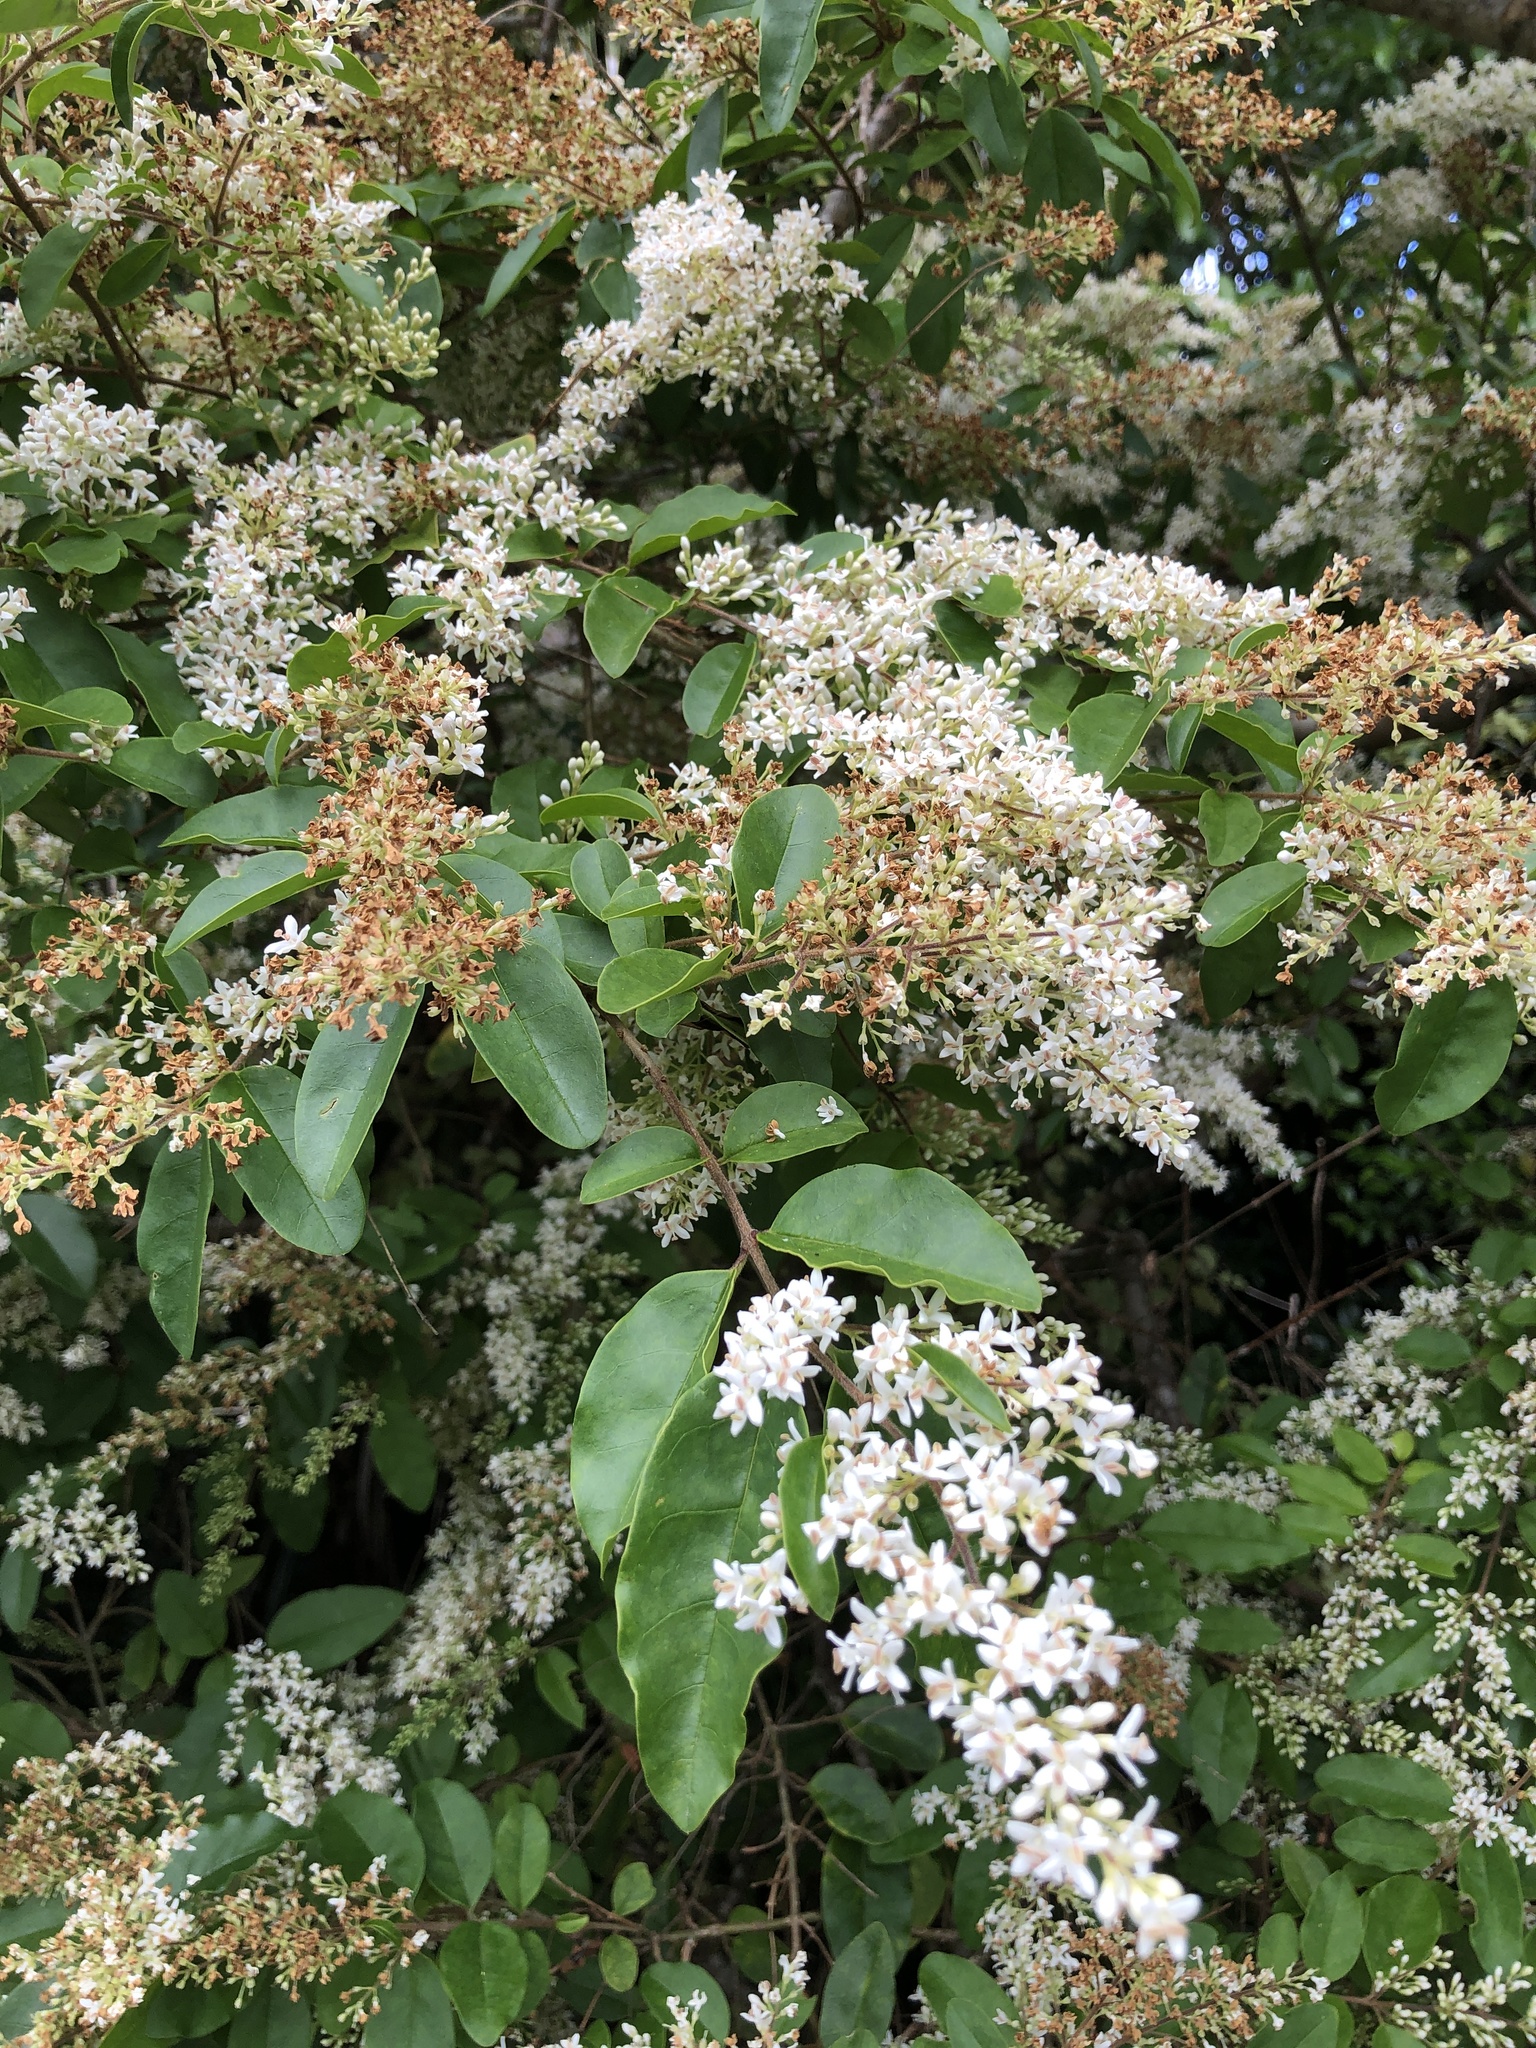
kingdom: Plantae
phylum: Tracheophyta
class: Magnoliopsida
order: Lamiales
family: Oleaceae
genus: Ligustrum
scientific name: Ligustrum sinense
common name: Chinese privet
